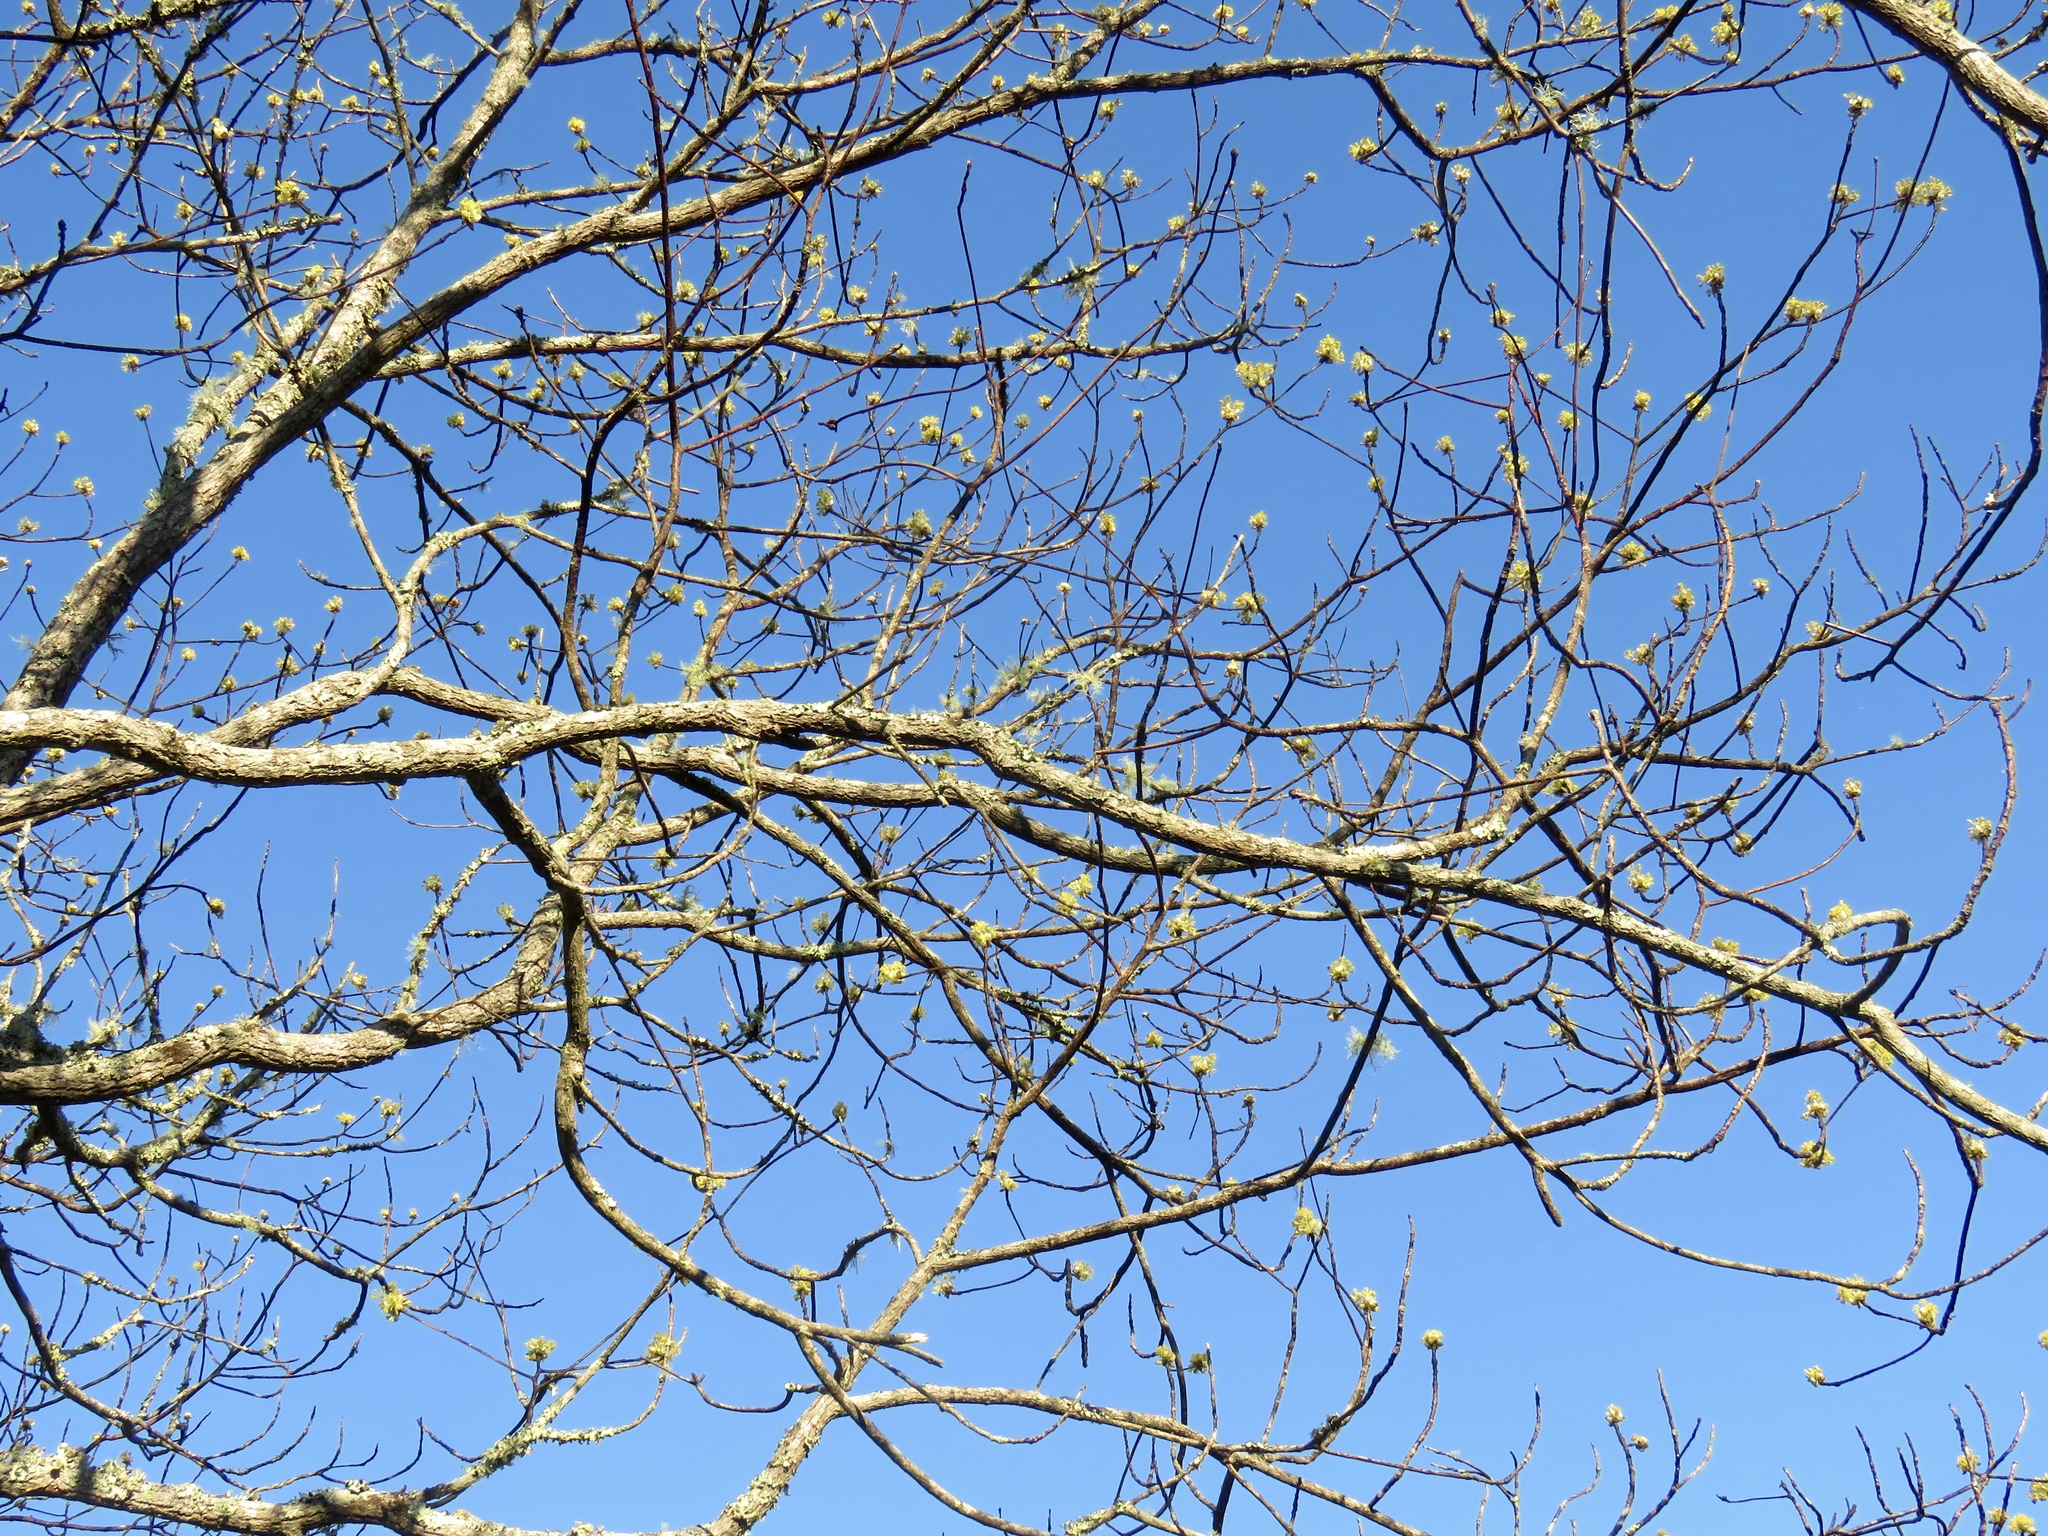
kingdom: Plantae
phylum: Tracheophyta
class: Magnoliopsida
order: Laurales
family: Lauraceae
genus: Sassafras
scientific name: Sassafras albidum
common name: Sassafras
